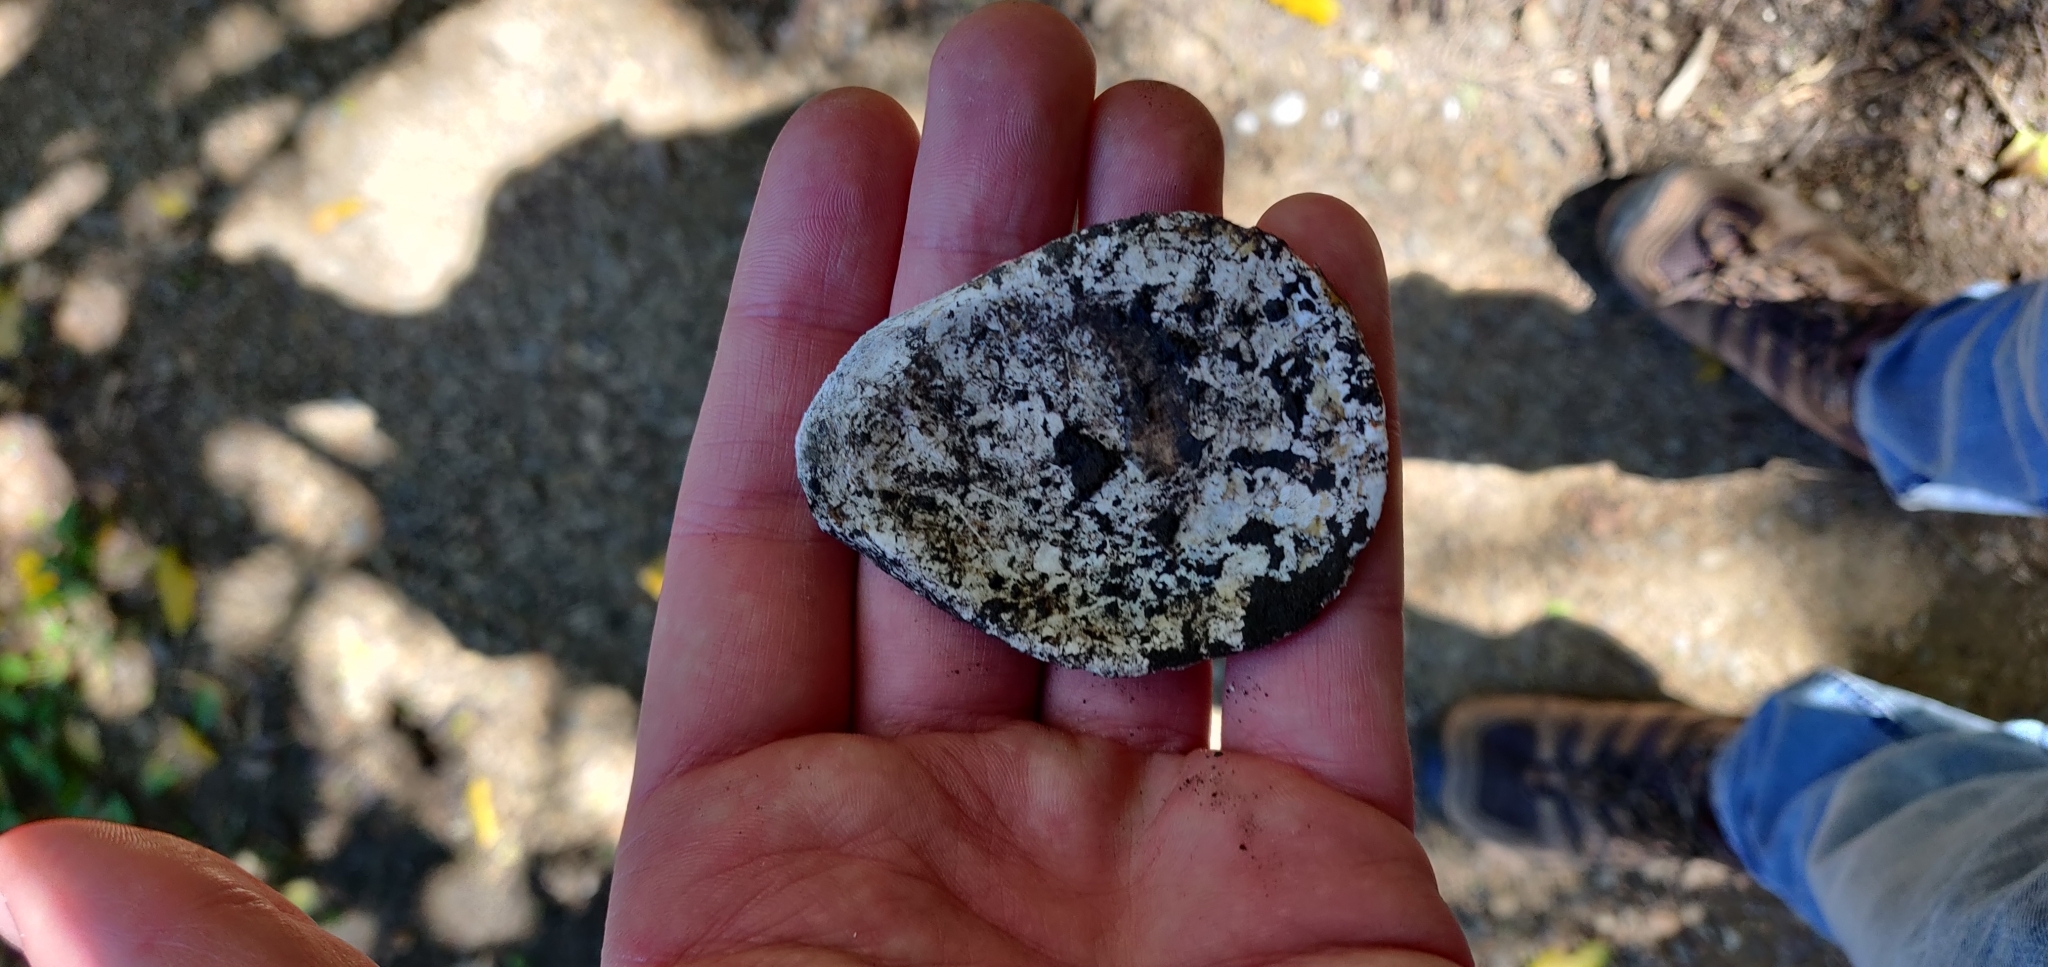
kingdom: Animalia
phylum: Mollusca
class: Bivalvia
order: Ostreida
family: Ostreidae
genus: Ostrea
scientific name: Ostrea chilensis
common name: Chilean oyster
